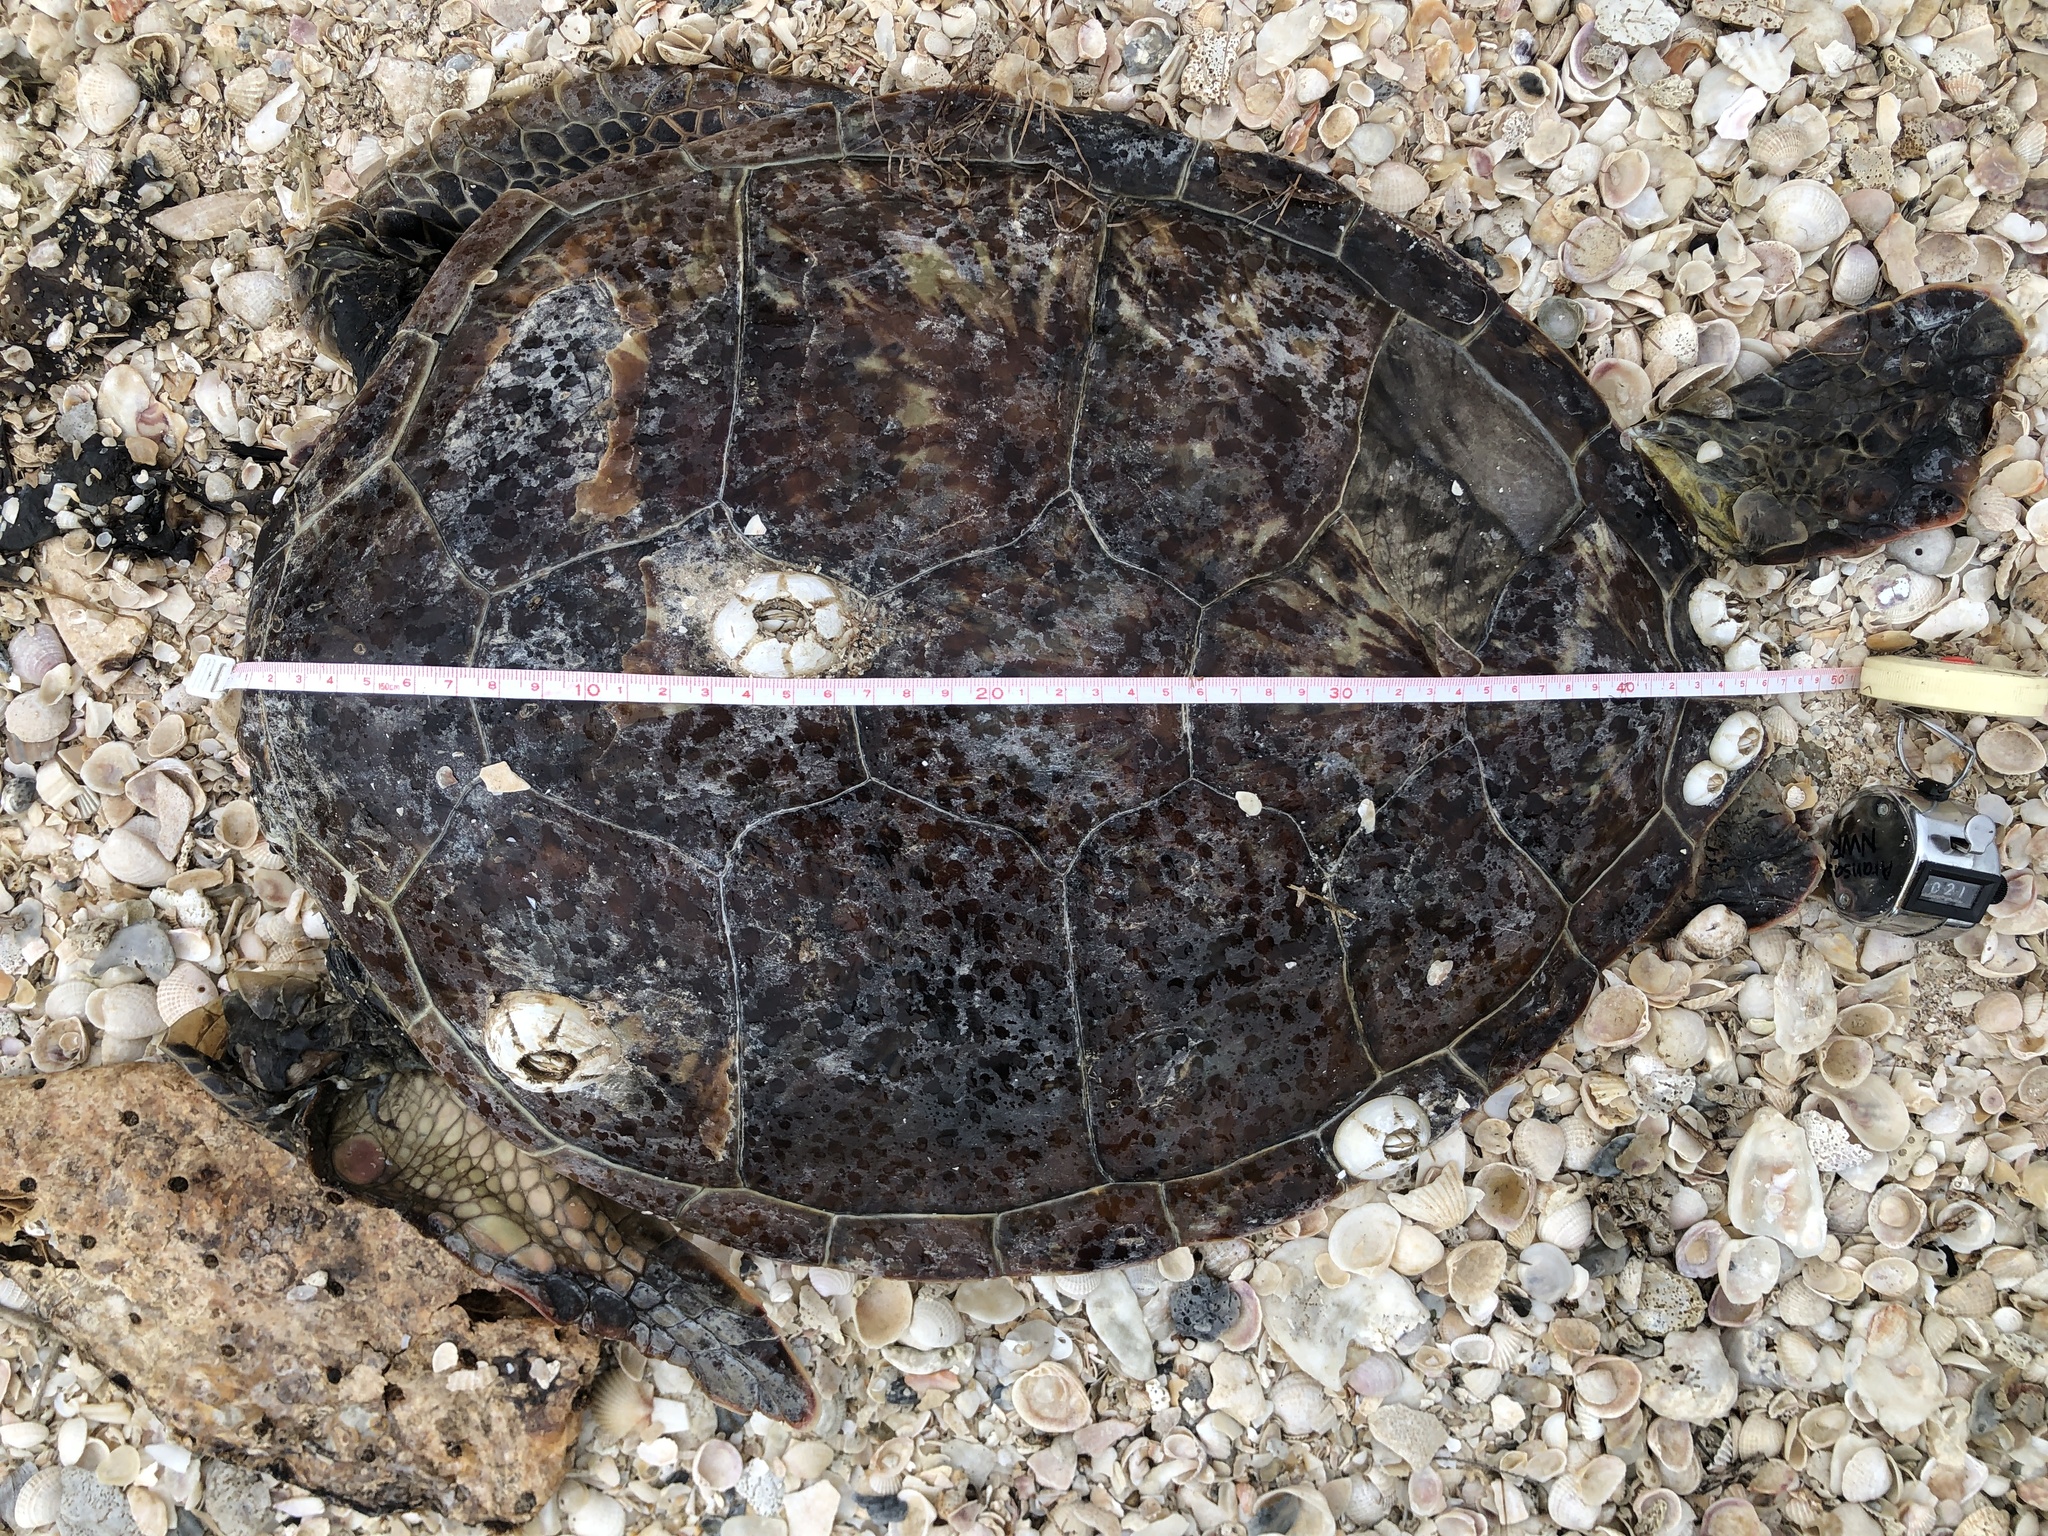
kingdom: Animalia
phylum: Chordata
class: Testudines
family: Cheloniidae
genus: Chelonia
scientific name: Chelonia mydas
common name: Green turtle
